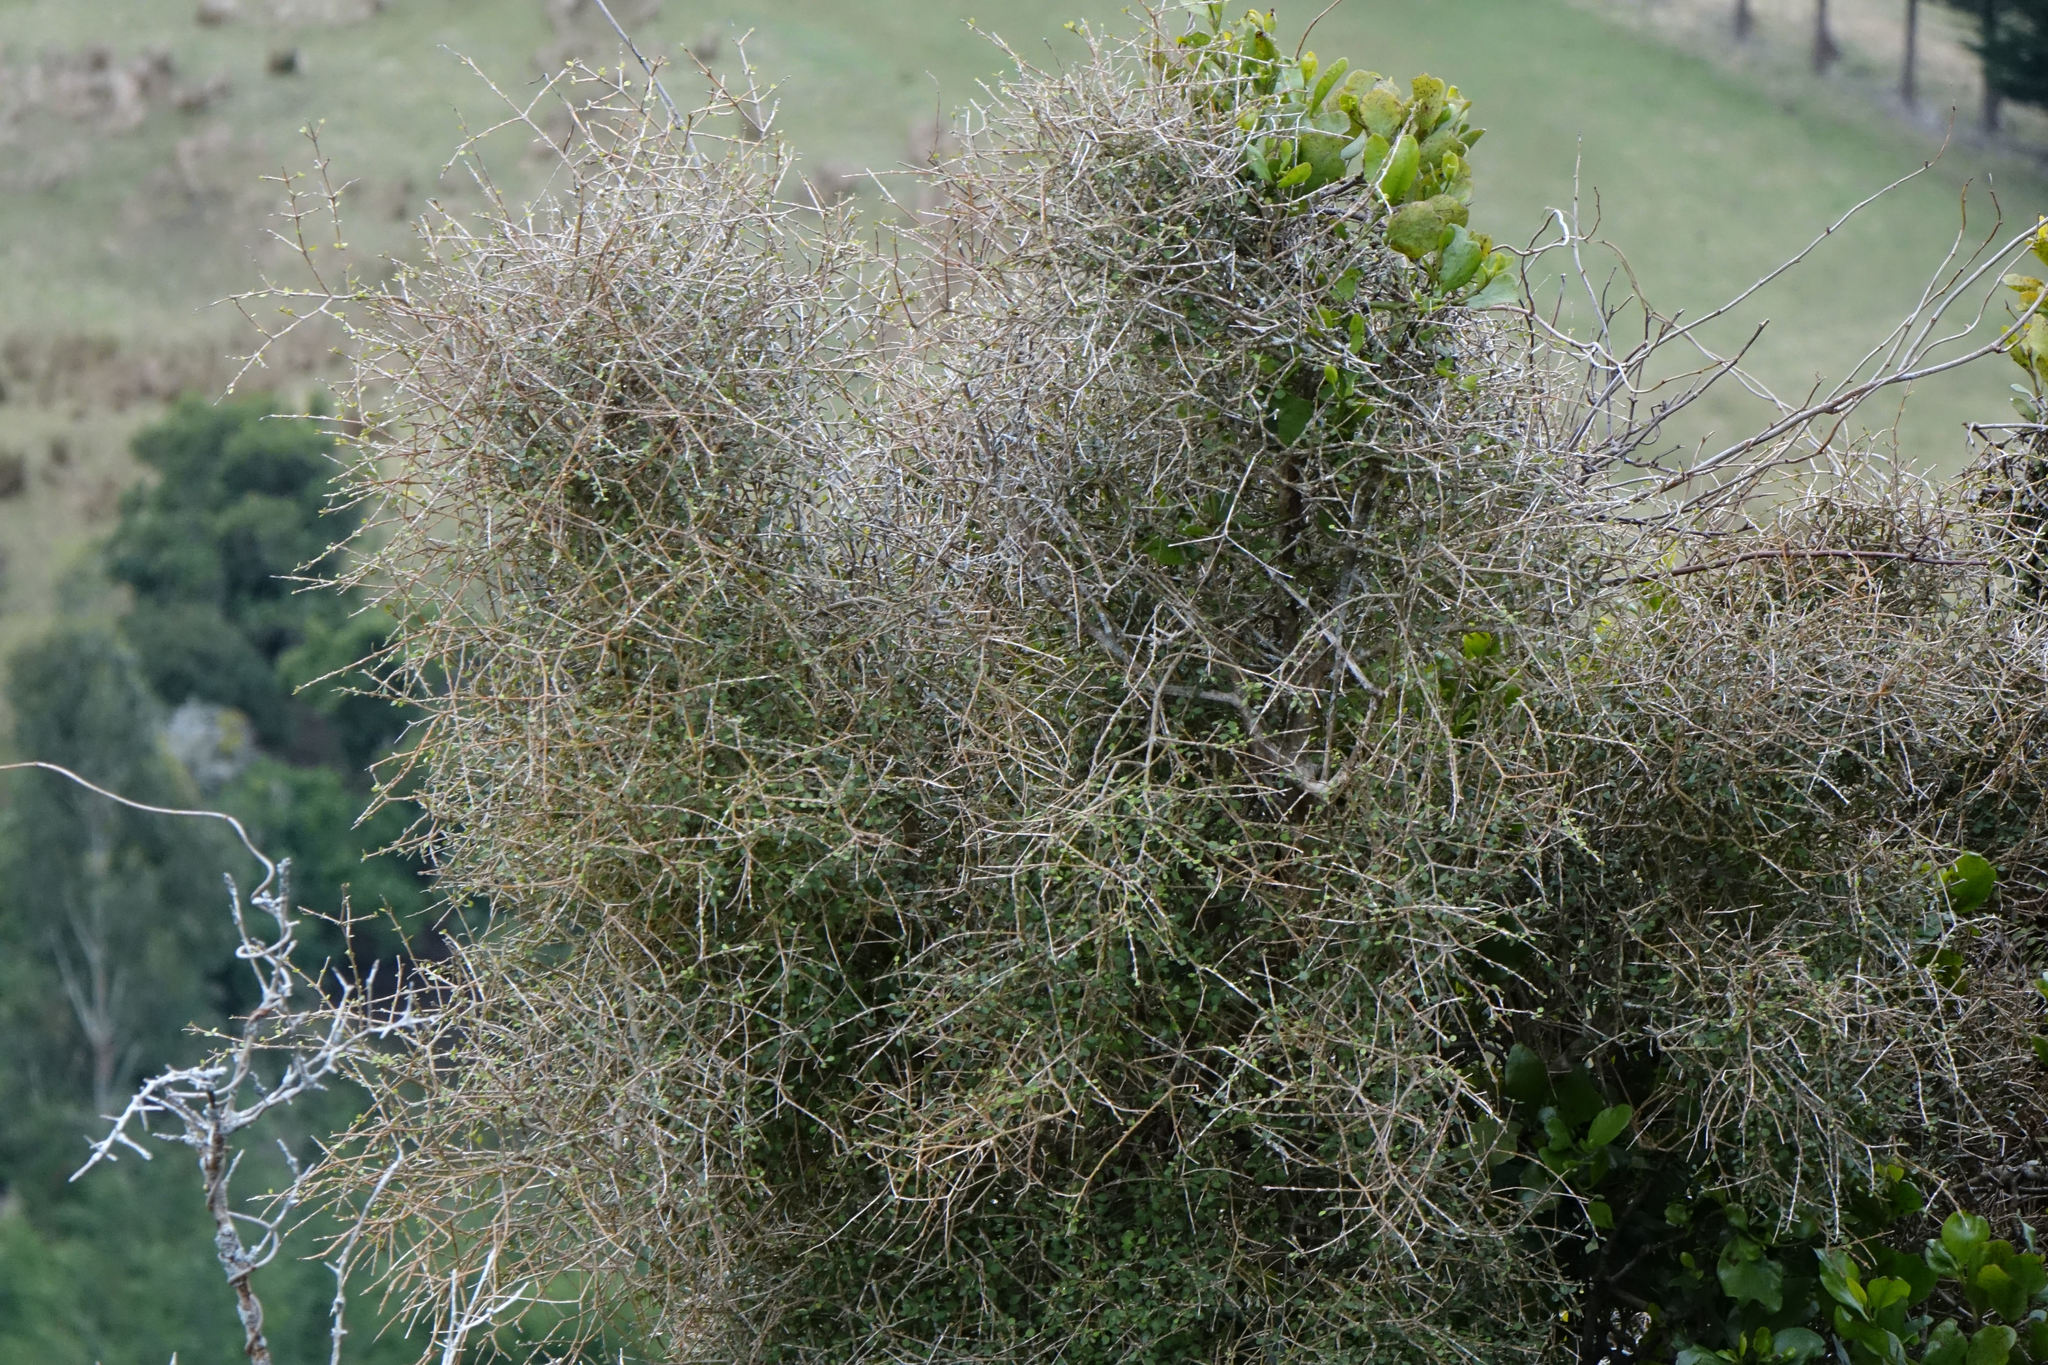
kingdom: Plantae
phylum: Tracheophyta
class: Magnoliopsida
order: Gentianales
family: Rubiaceae
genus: Coprosma
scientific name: Coprosma virescens
